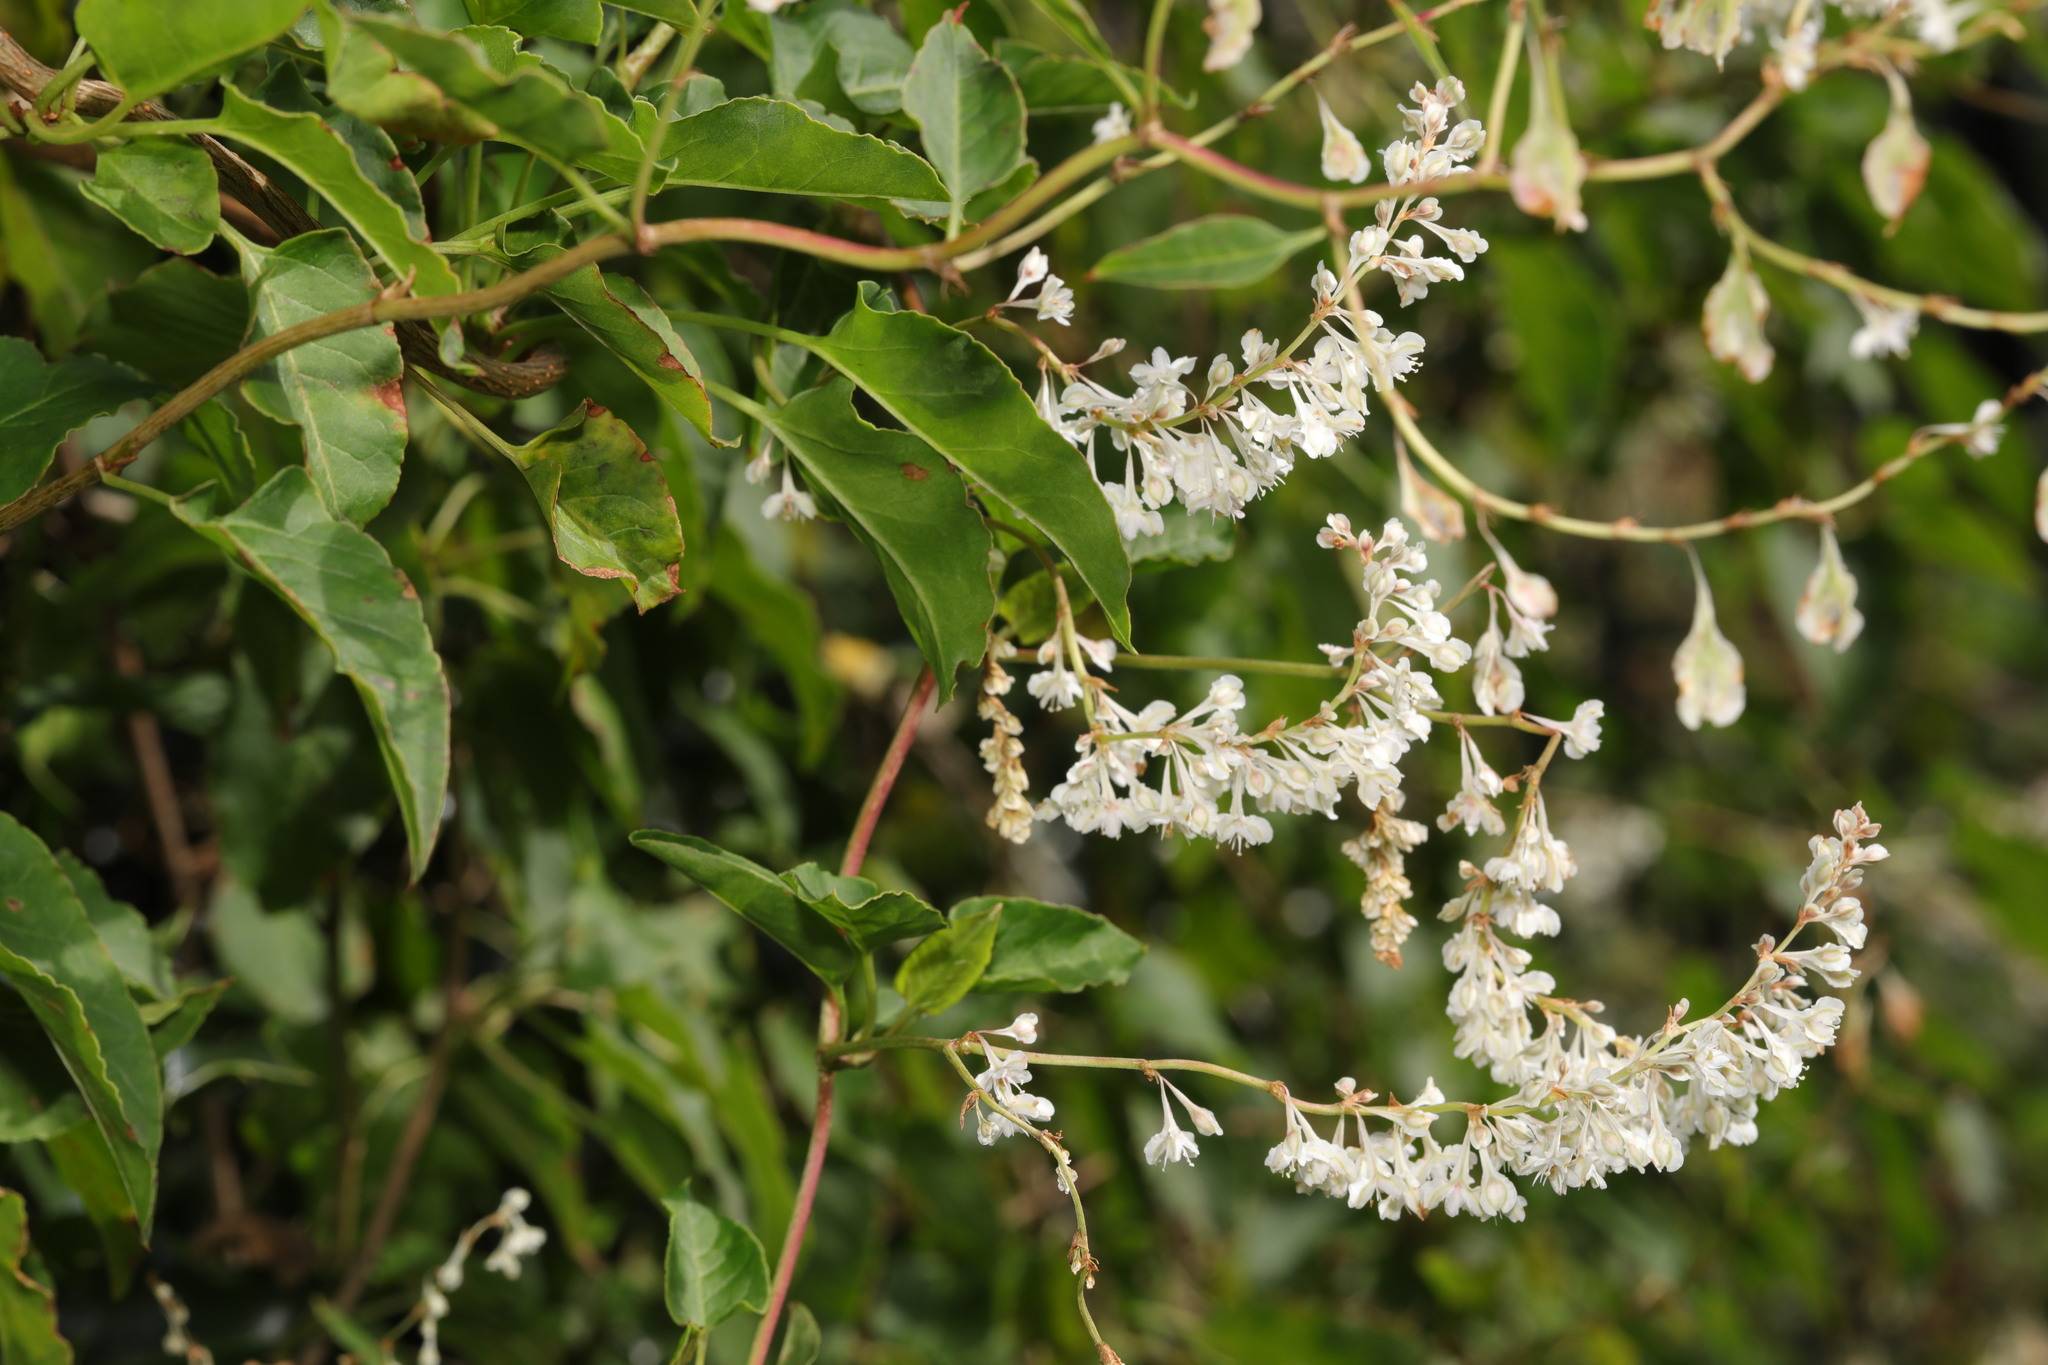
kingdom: Plantae
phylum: Tracheophyta
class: Magnoliopsida
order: Caryophyllales
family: Polygonaceae
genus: Fallopia
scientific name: Fallopia baldschuanica
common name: Russian-vine
